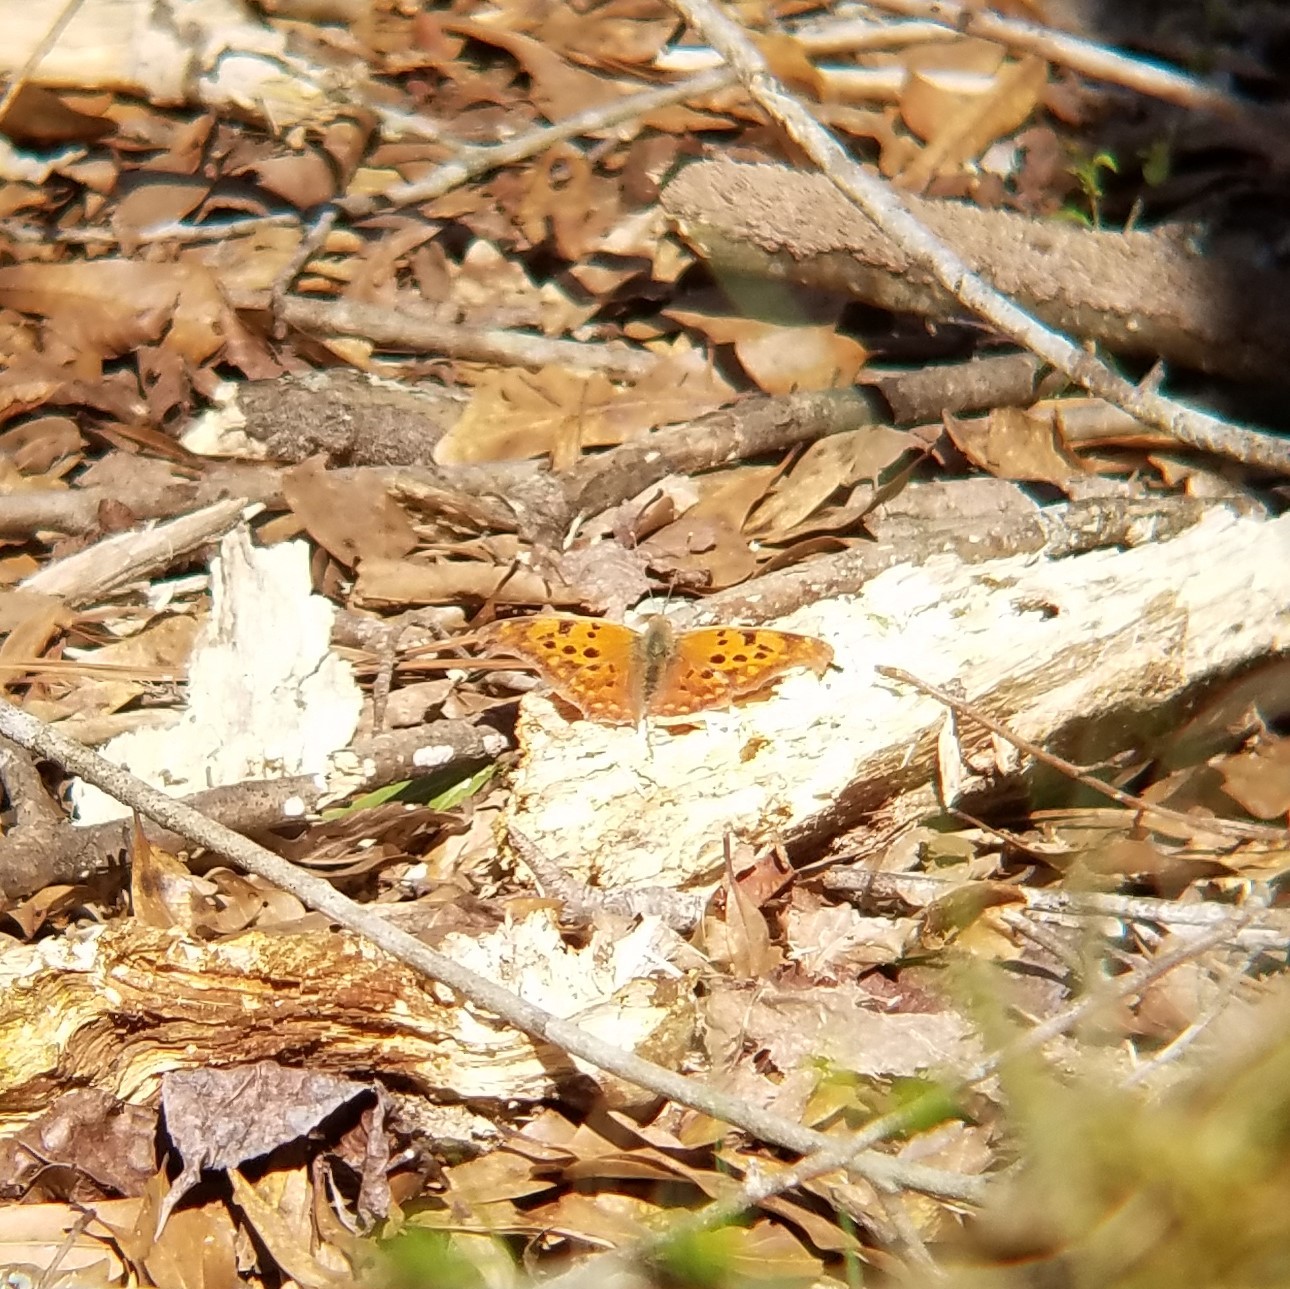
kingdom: Animalia
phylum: Arthropoda
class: Insecta
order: Lepidoptera
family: Nymphalidae
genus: Polygonia
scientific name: Polygonia interrogationis
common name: Question mark
